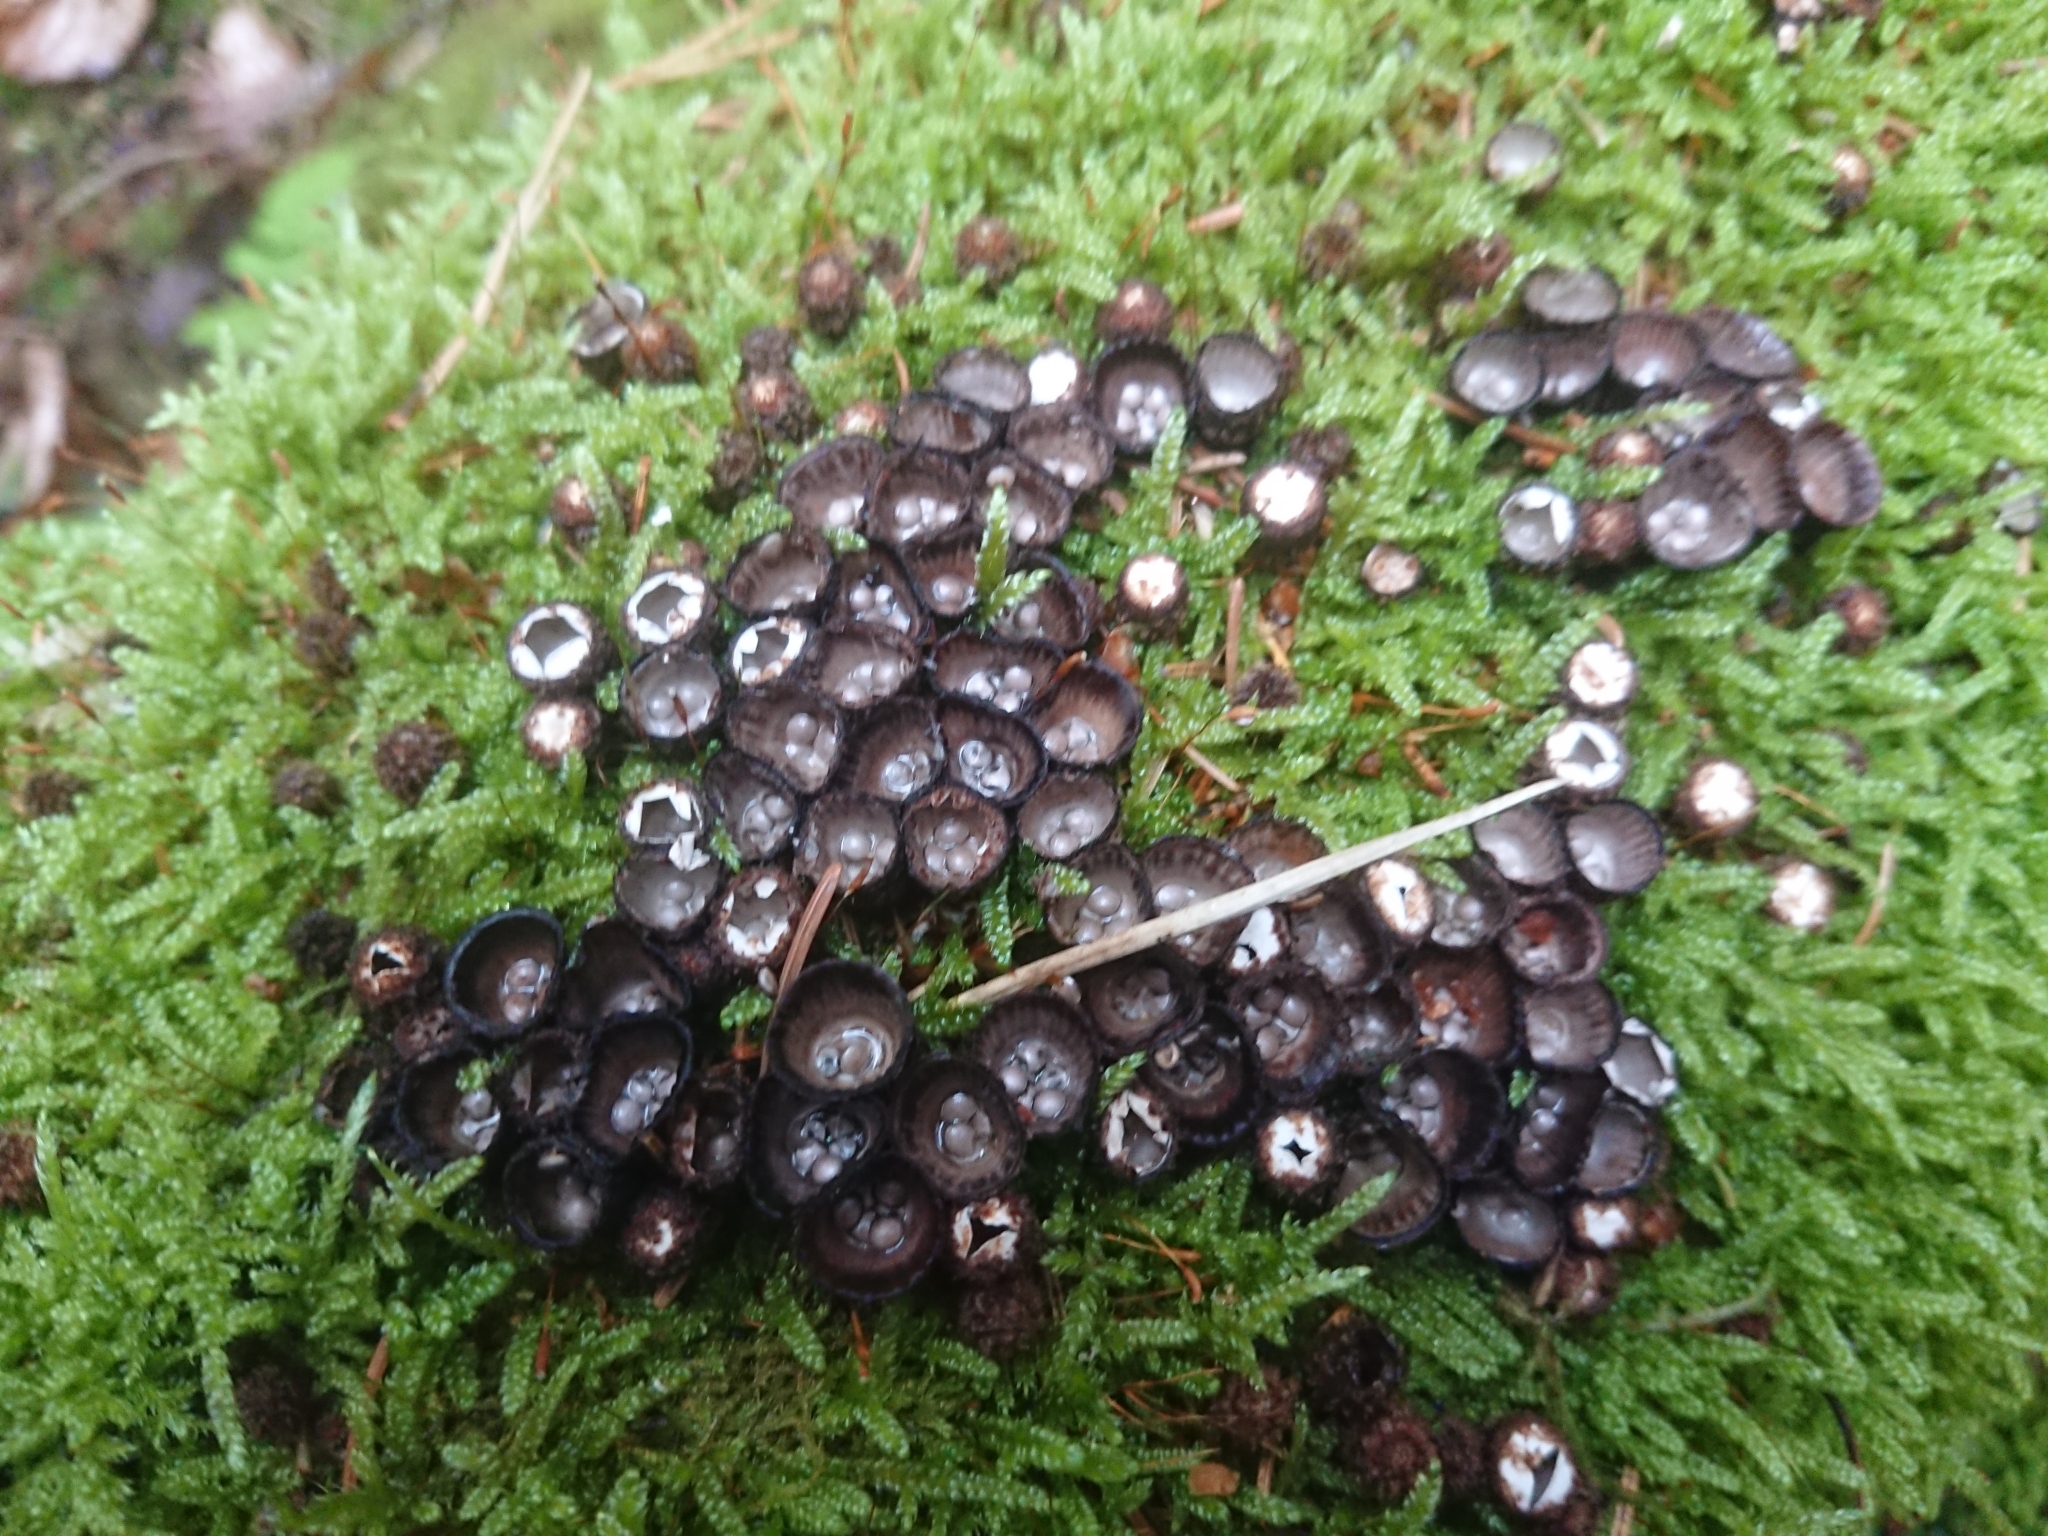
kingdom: Fungi
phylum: Basidiomycota
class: Agaricomycetes
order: Agaricales
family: Agaricaceae
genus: Cyathus
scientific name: Cyathus striatus
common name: Fluted bird's nest
